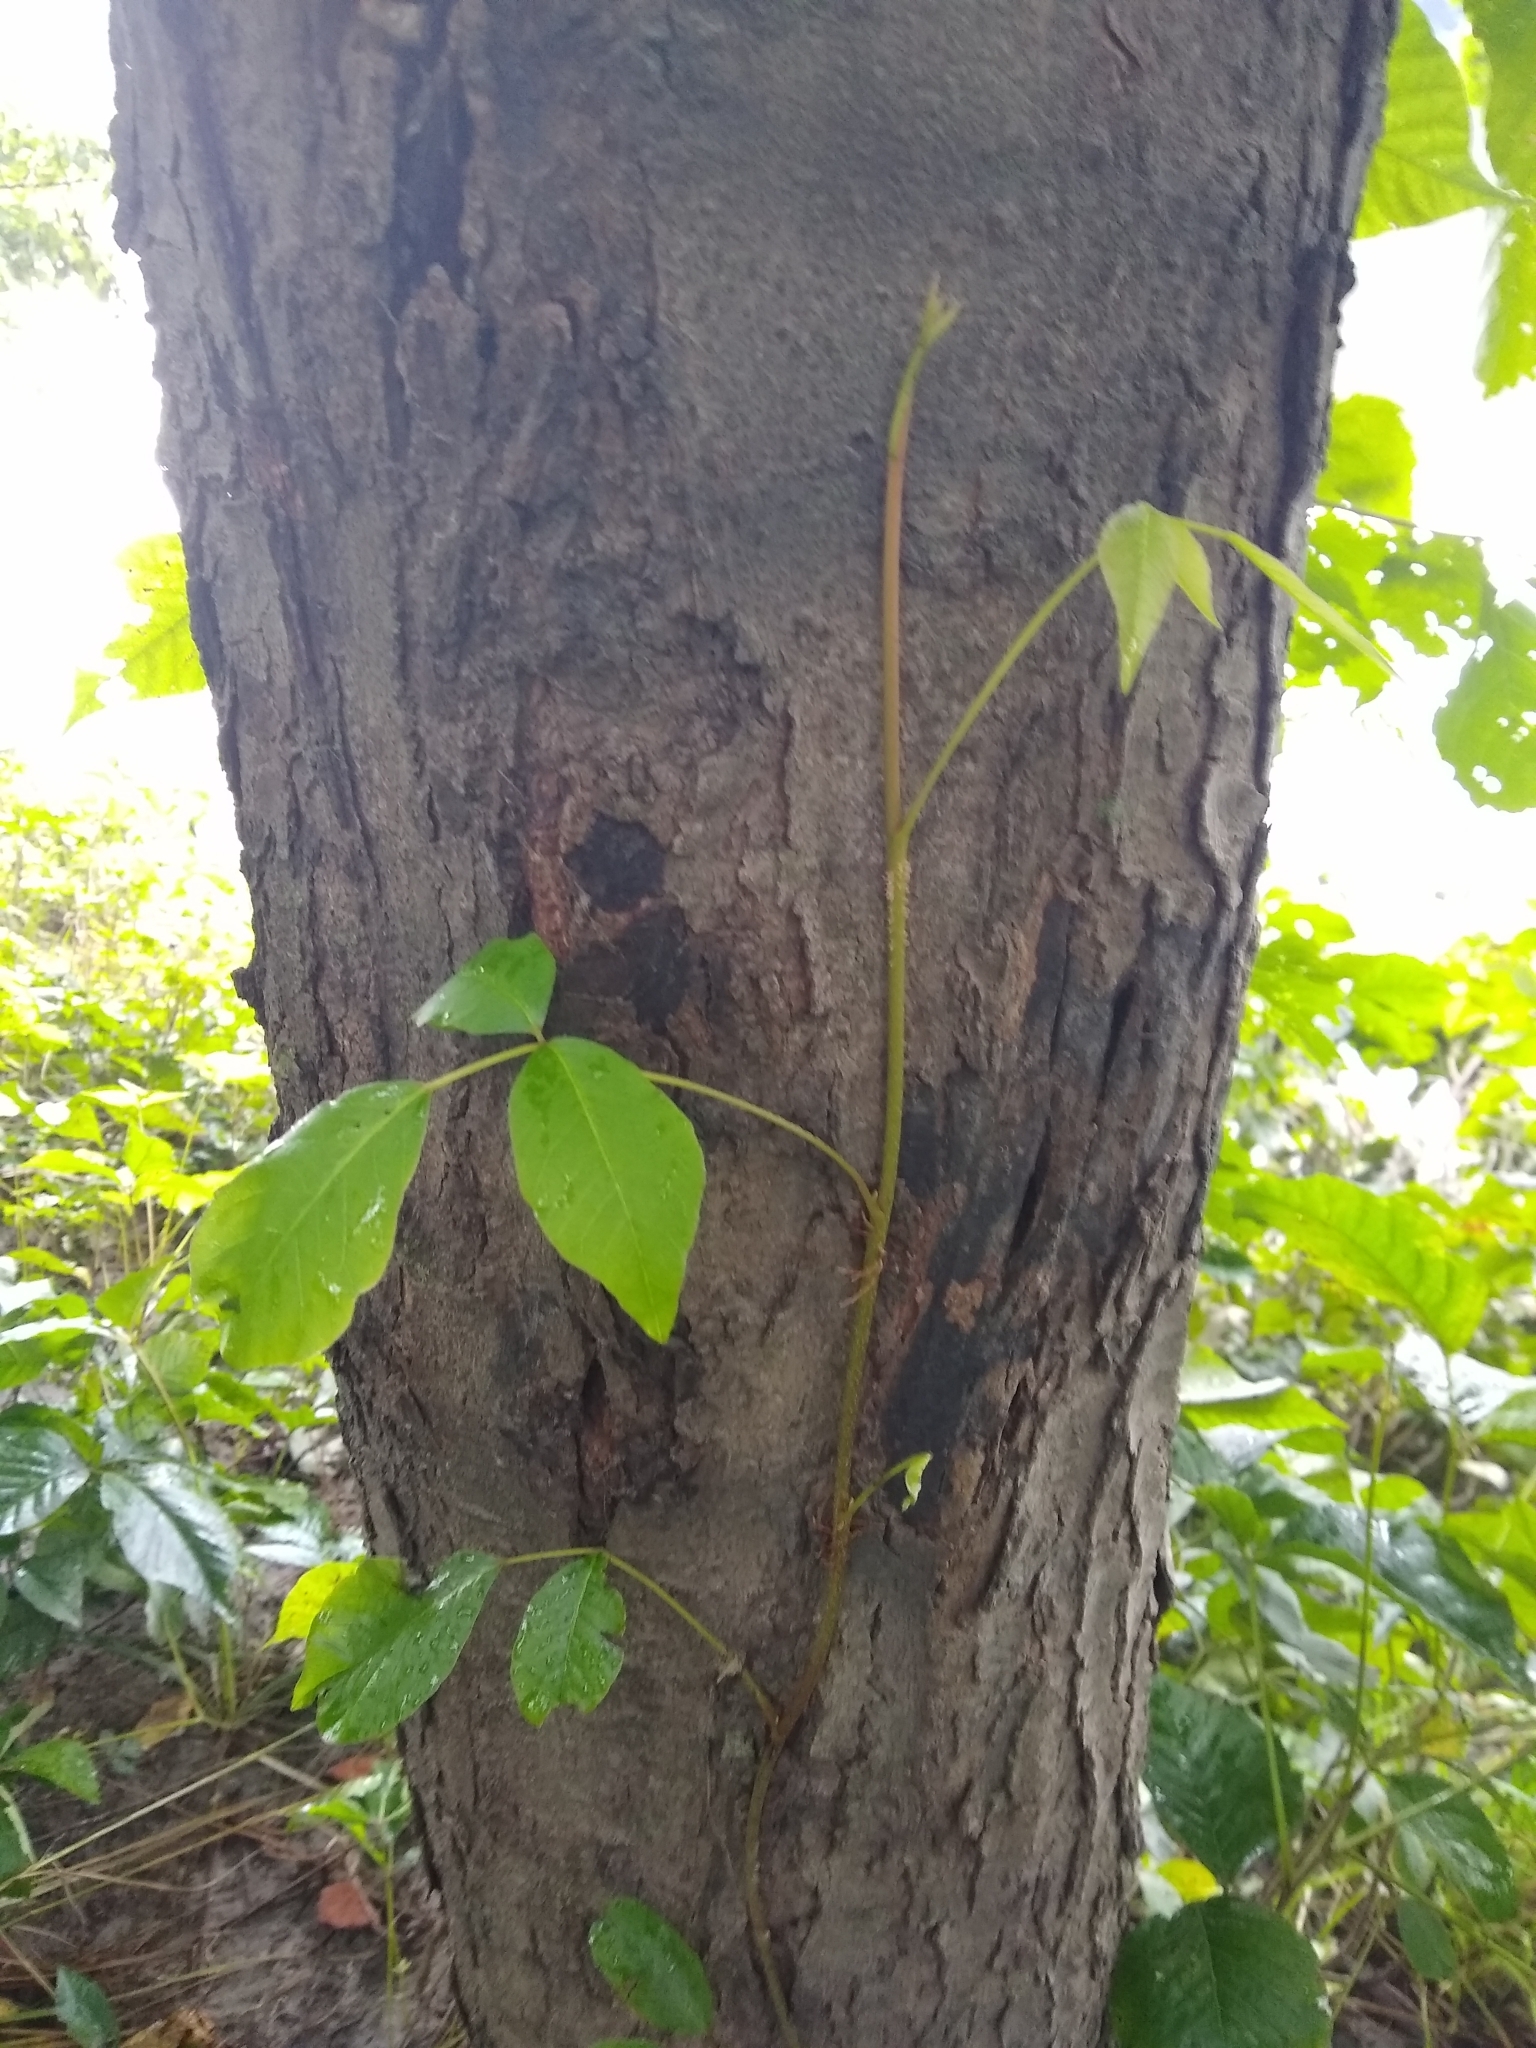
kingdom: Plantae
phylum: Tracheophyta
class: Magnoliopsida
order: Sapindales
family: Anacardiaceae
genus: Toxicodendron
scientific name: Toxicodendron radicans
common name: Poison ivy
